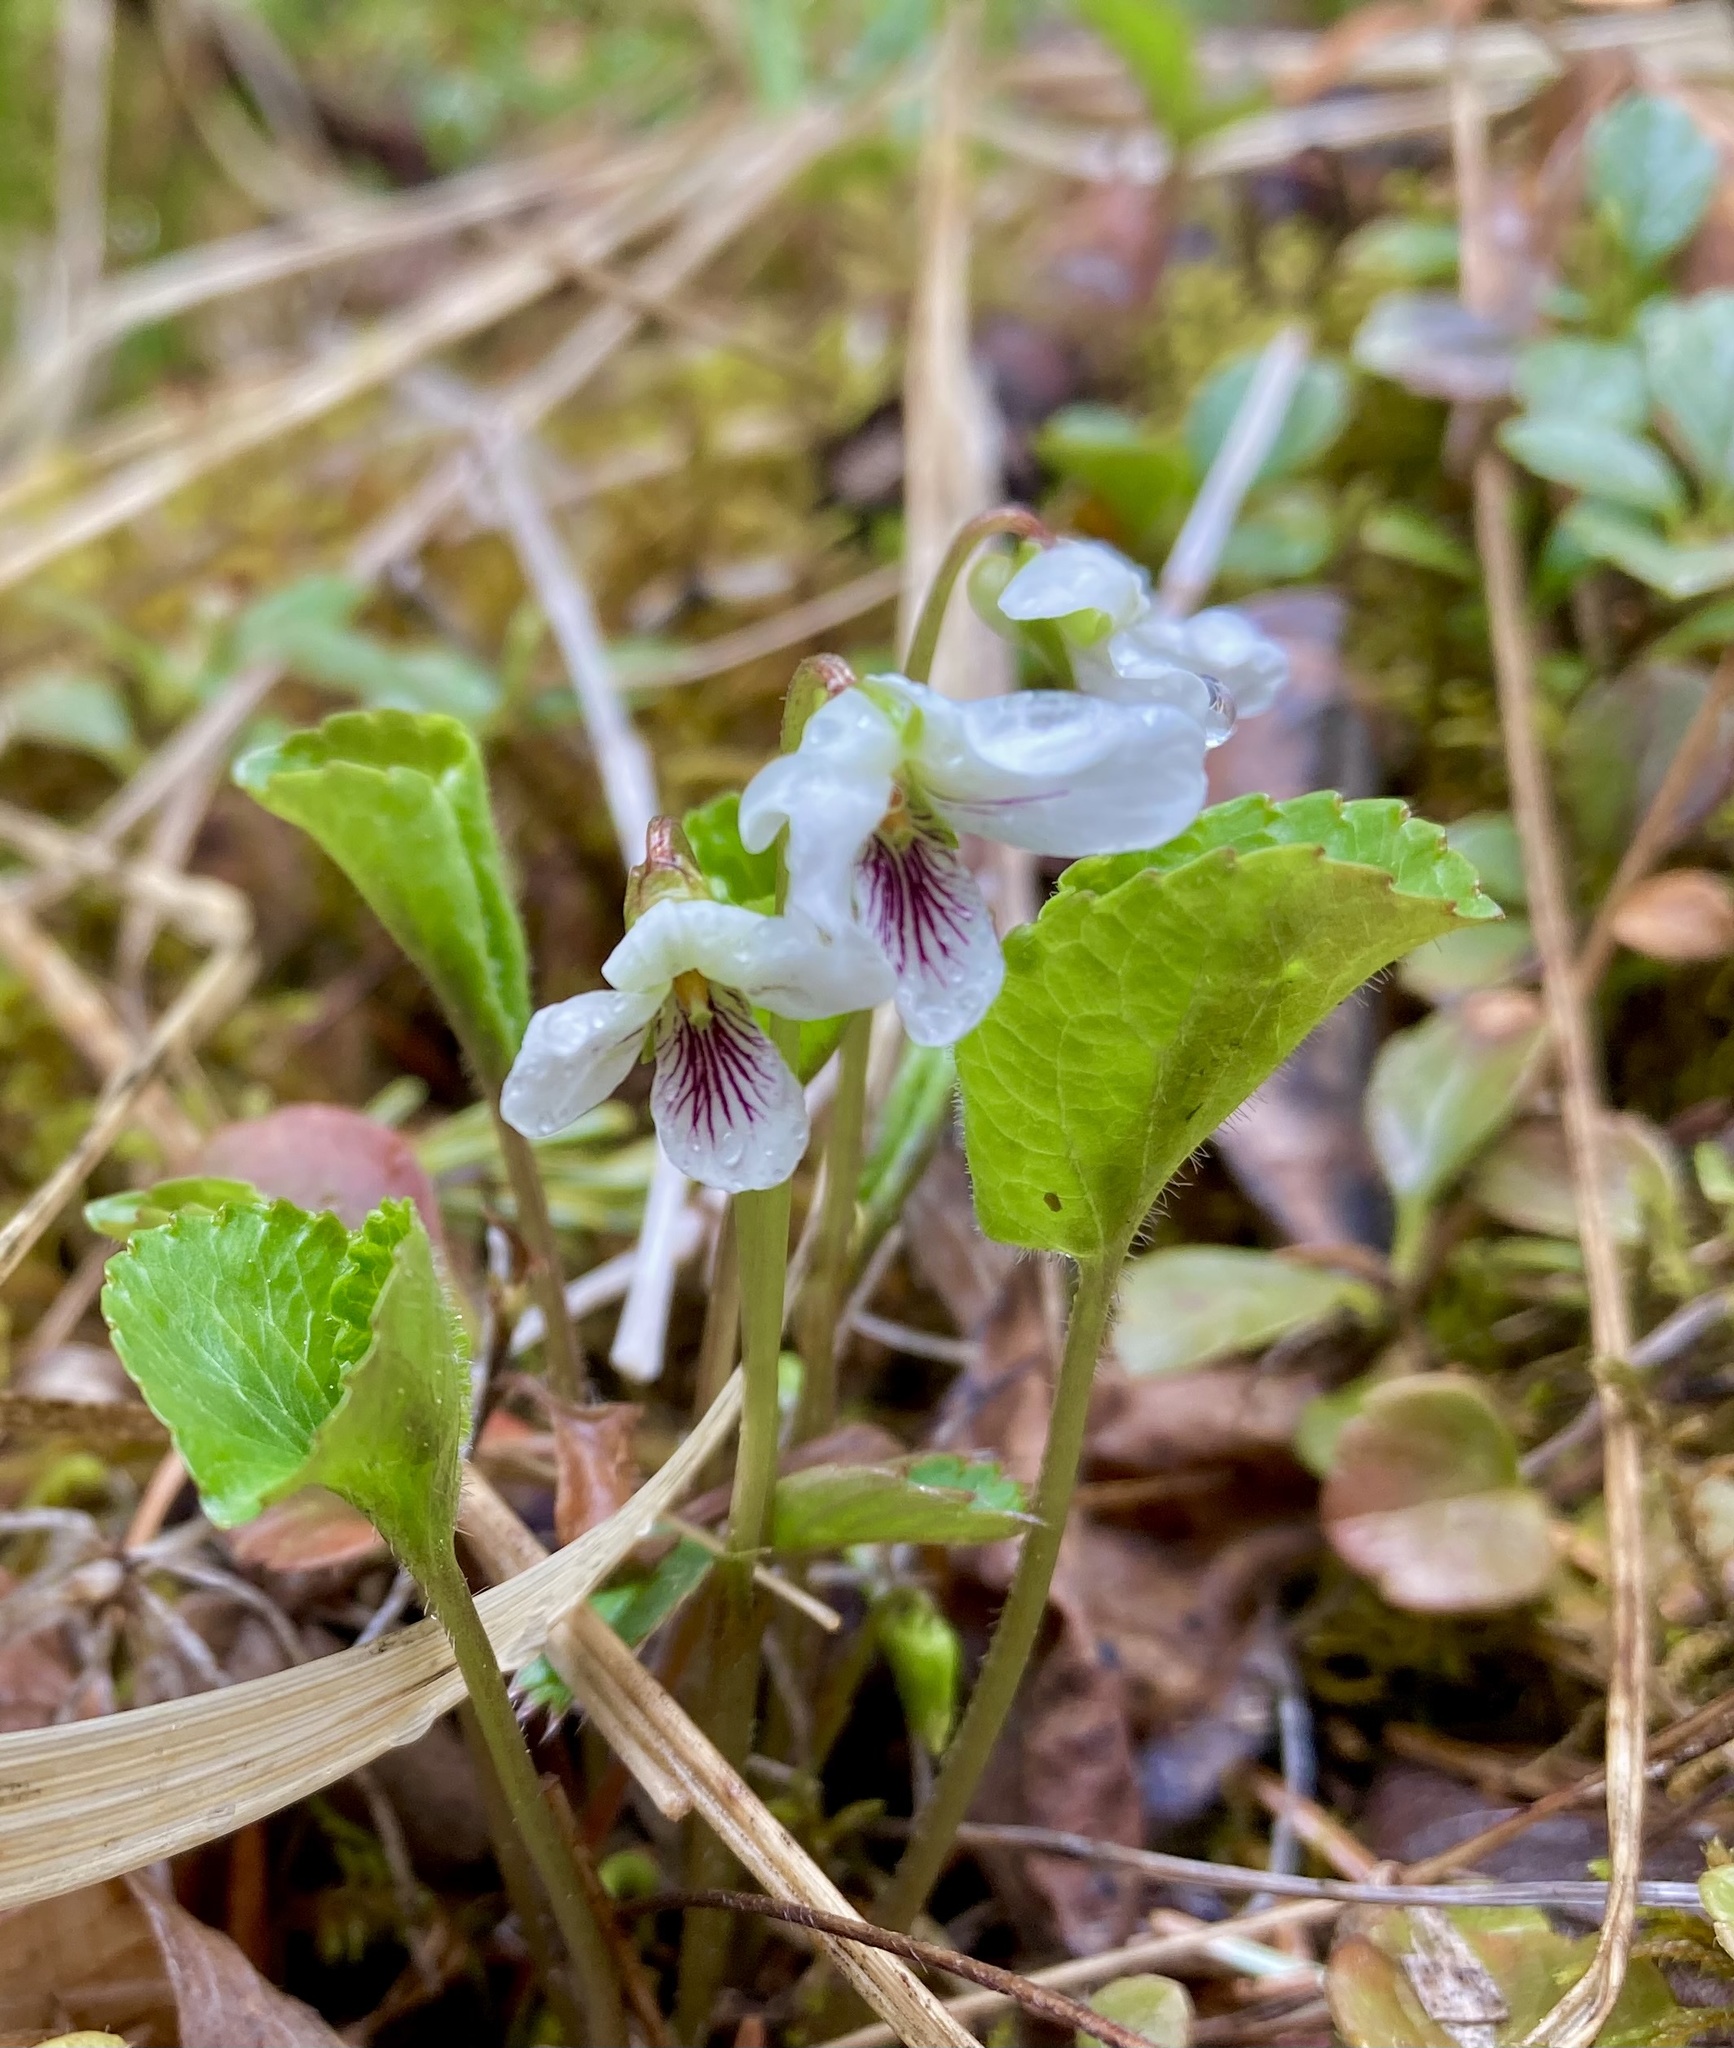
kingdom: Plantae
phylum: Tracheophyta
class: Magnoliopsida
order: Malpighiales
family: Violaceae
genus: Viola
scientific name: Viola renifolia
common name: Kidney-leaf violet
